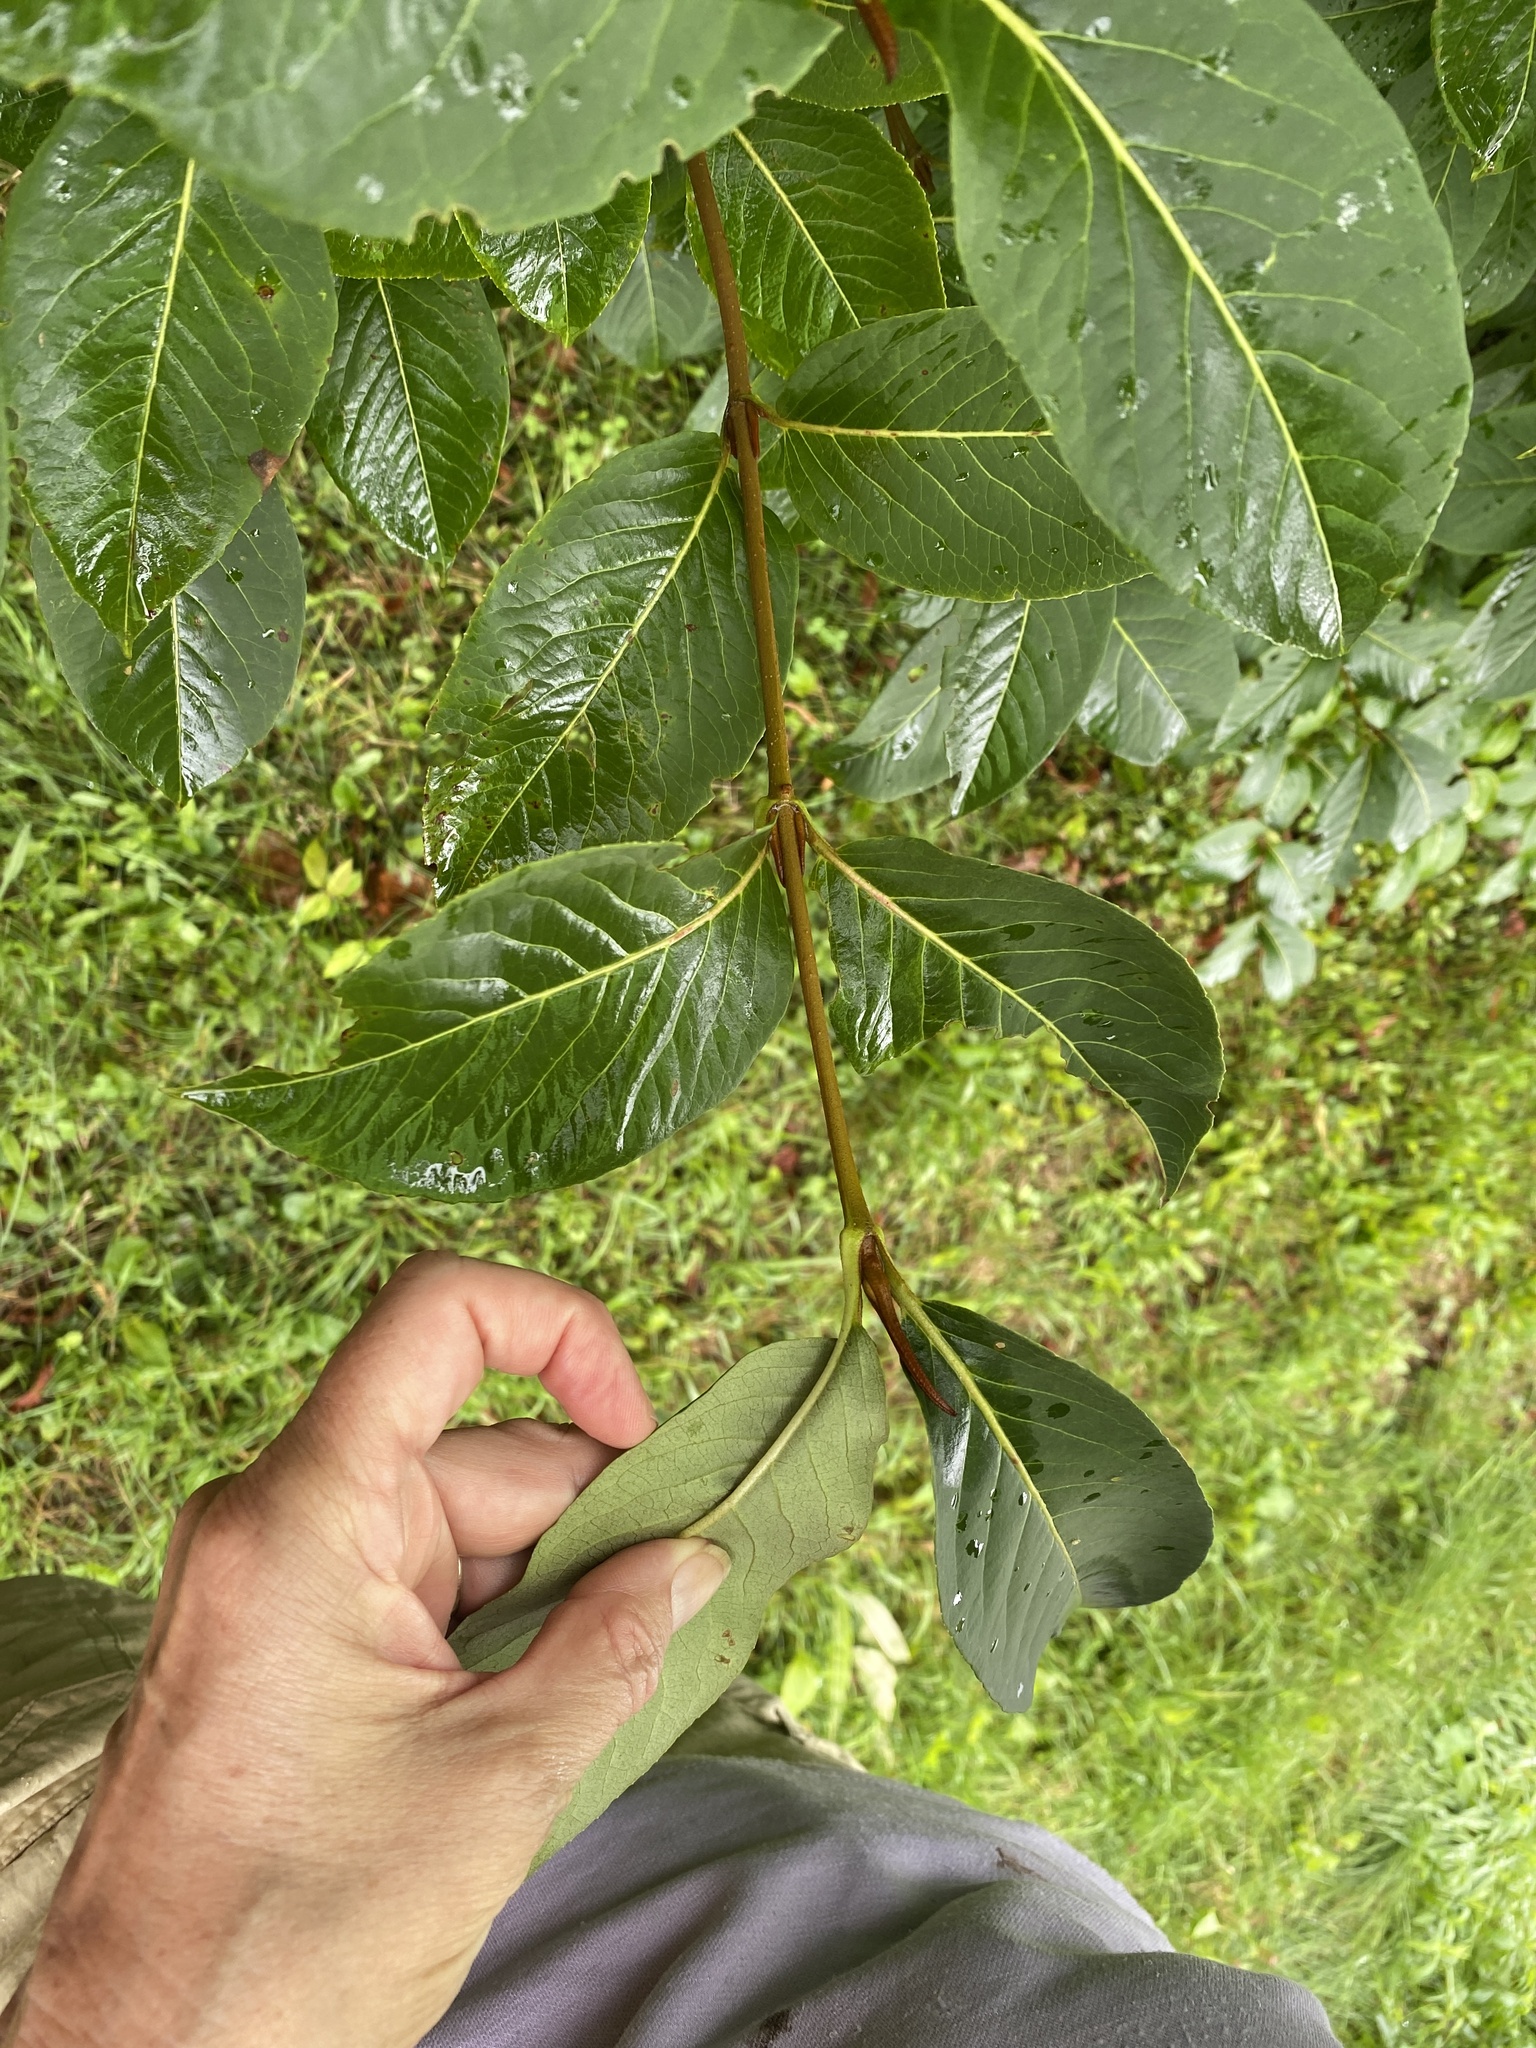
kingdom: Plantae
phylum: Tracheophyta
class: Magnoliopsida
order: Dipsacales
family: Viburnaceae
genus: Viburnum
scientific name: Viburnum cassinoides
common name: Swamp haw
